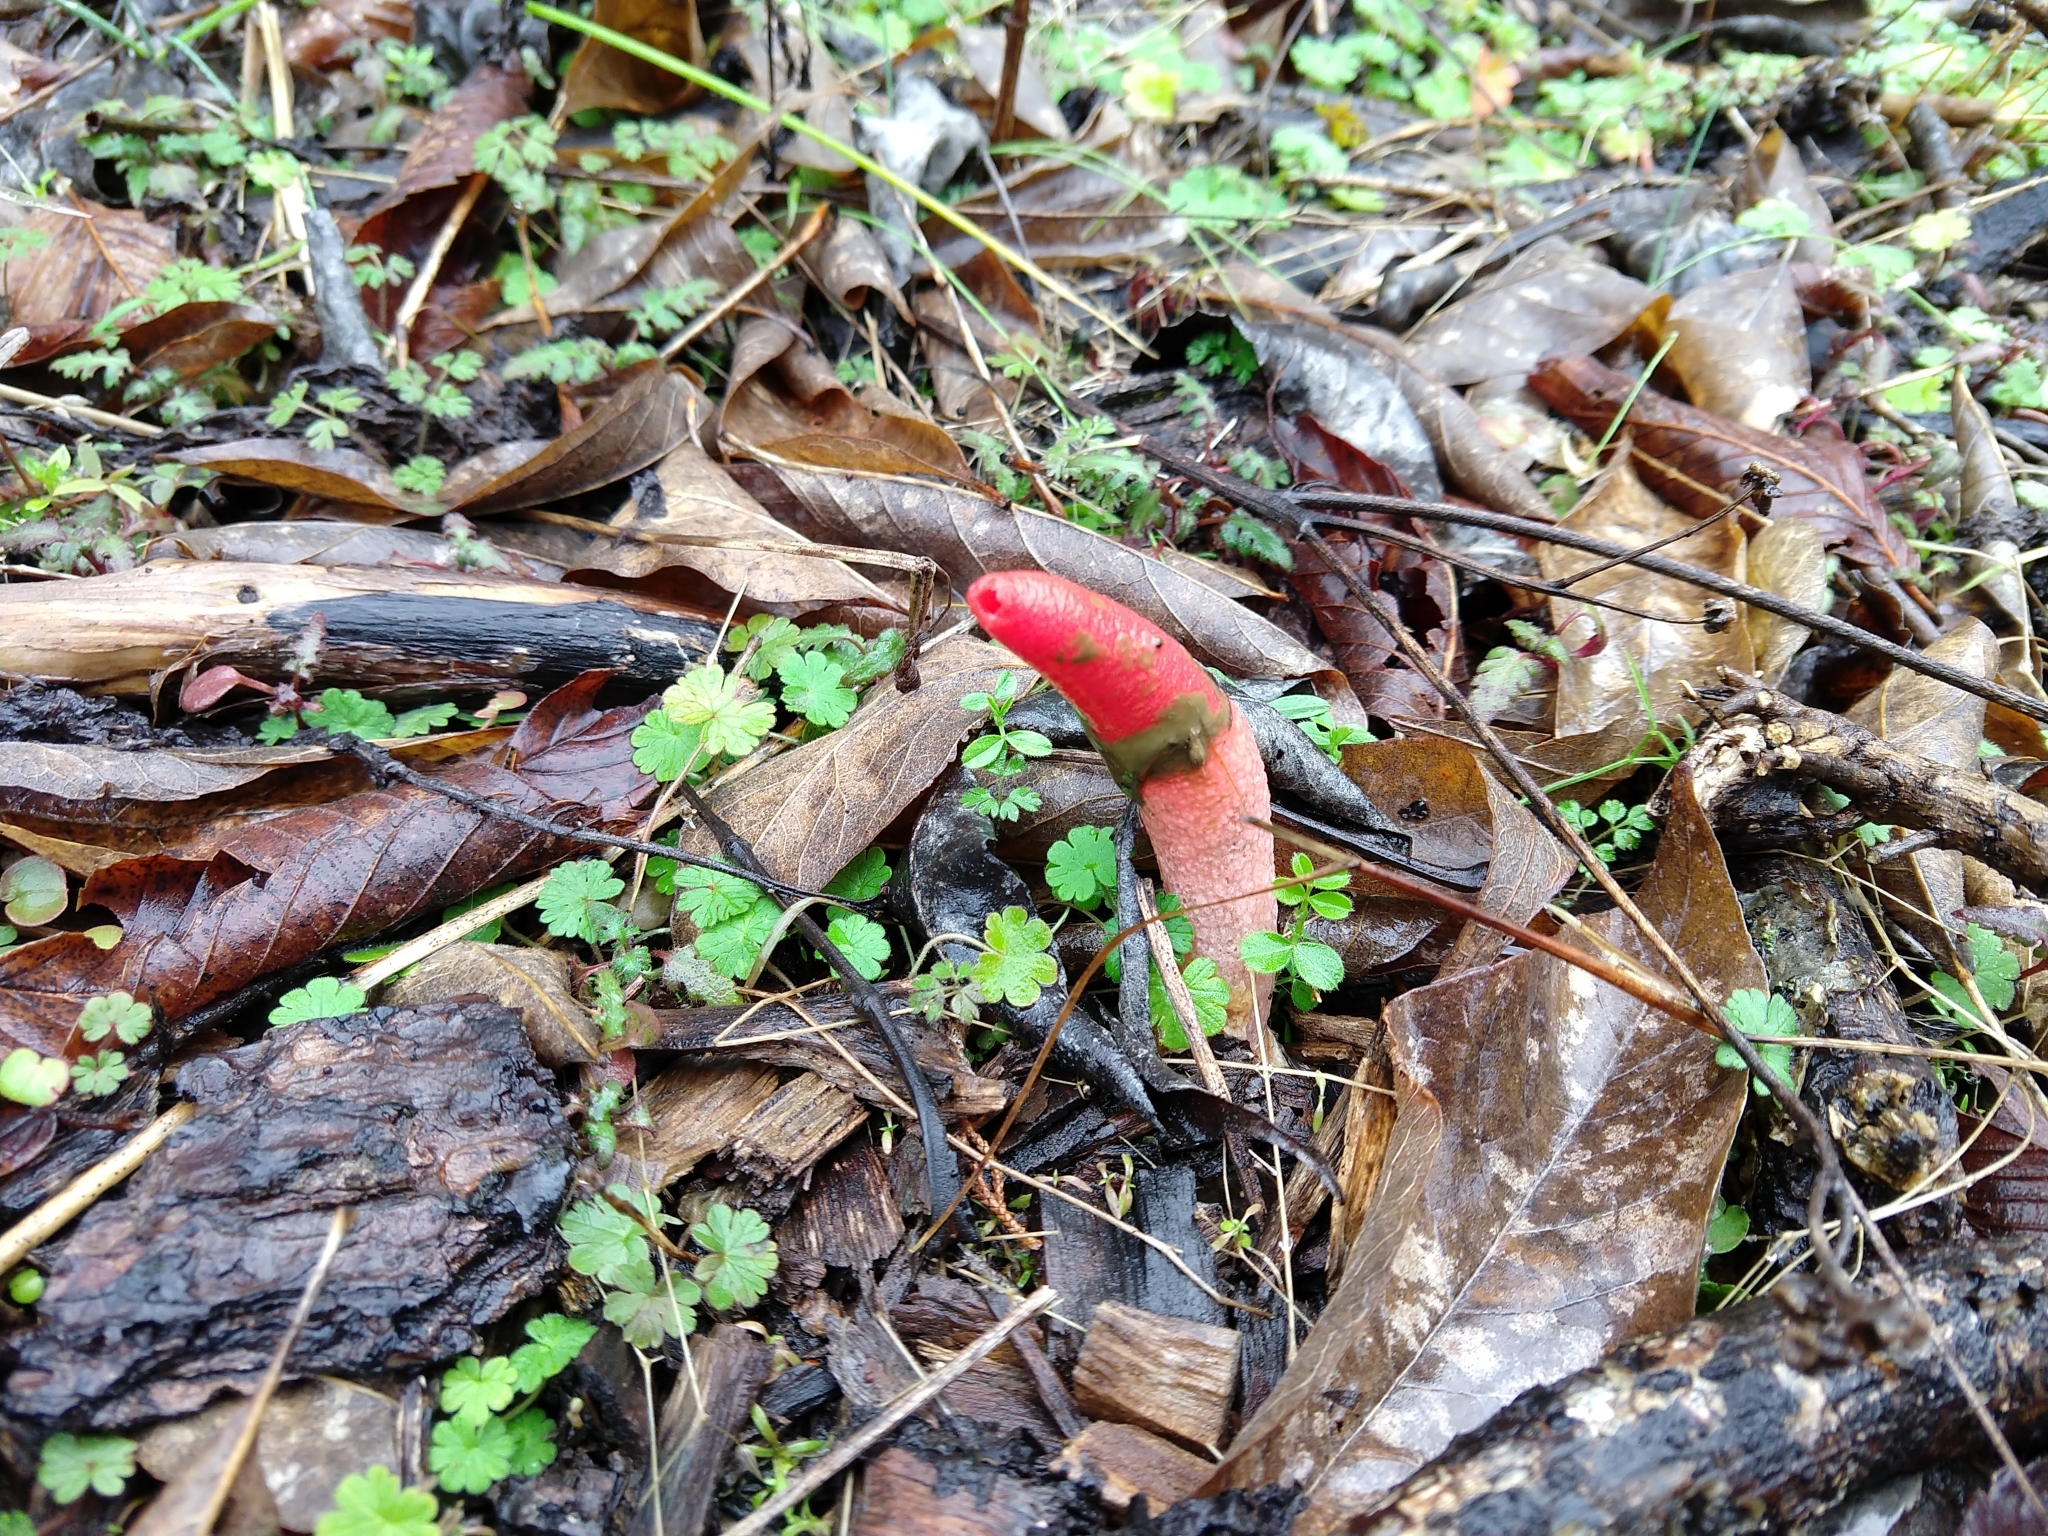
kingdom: Fungi
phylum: Basidiomycota
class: Agaricomycetes
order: Phallales
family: Phallaceae
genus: Mutinus
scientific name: Mutinus elegans
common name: Devil's dipstick
